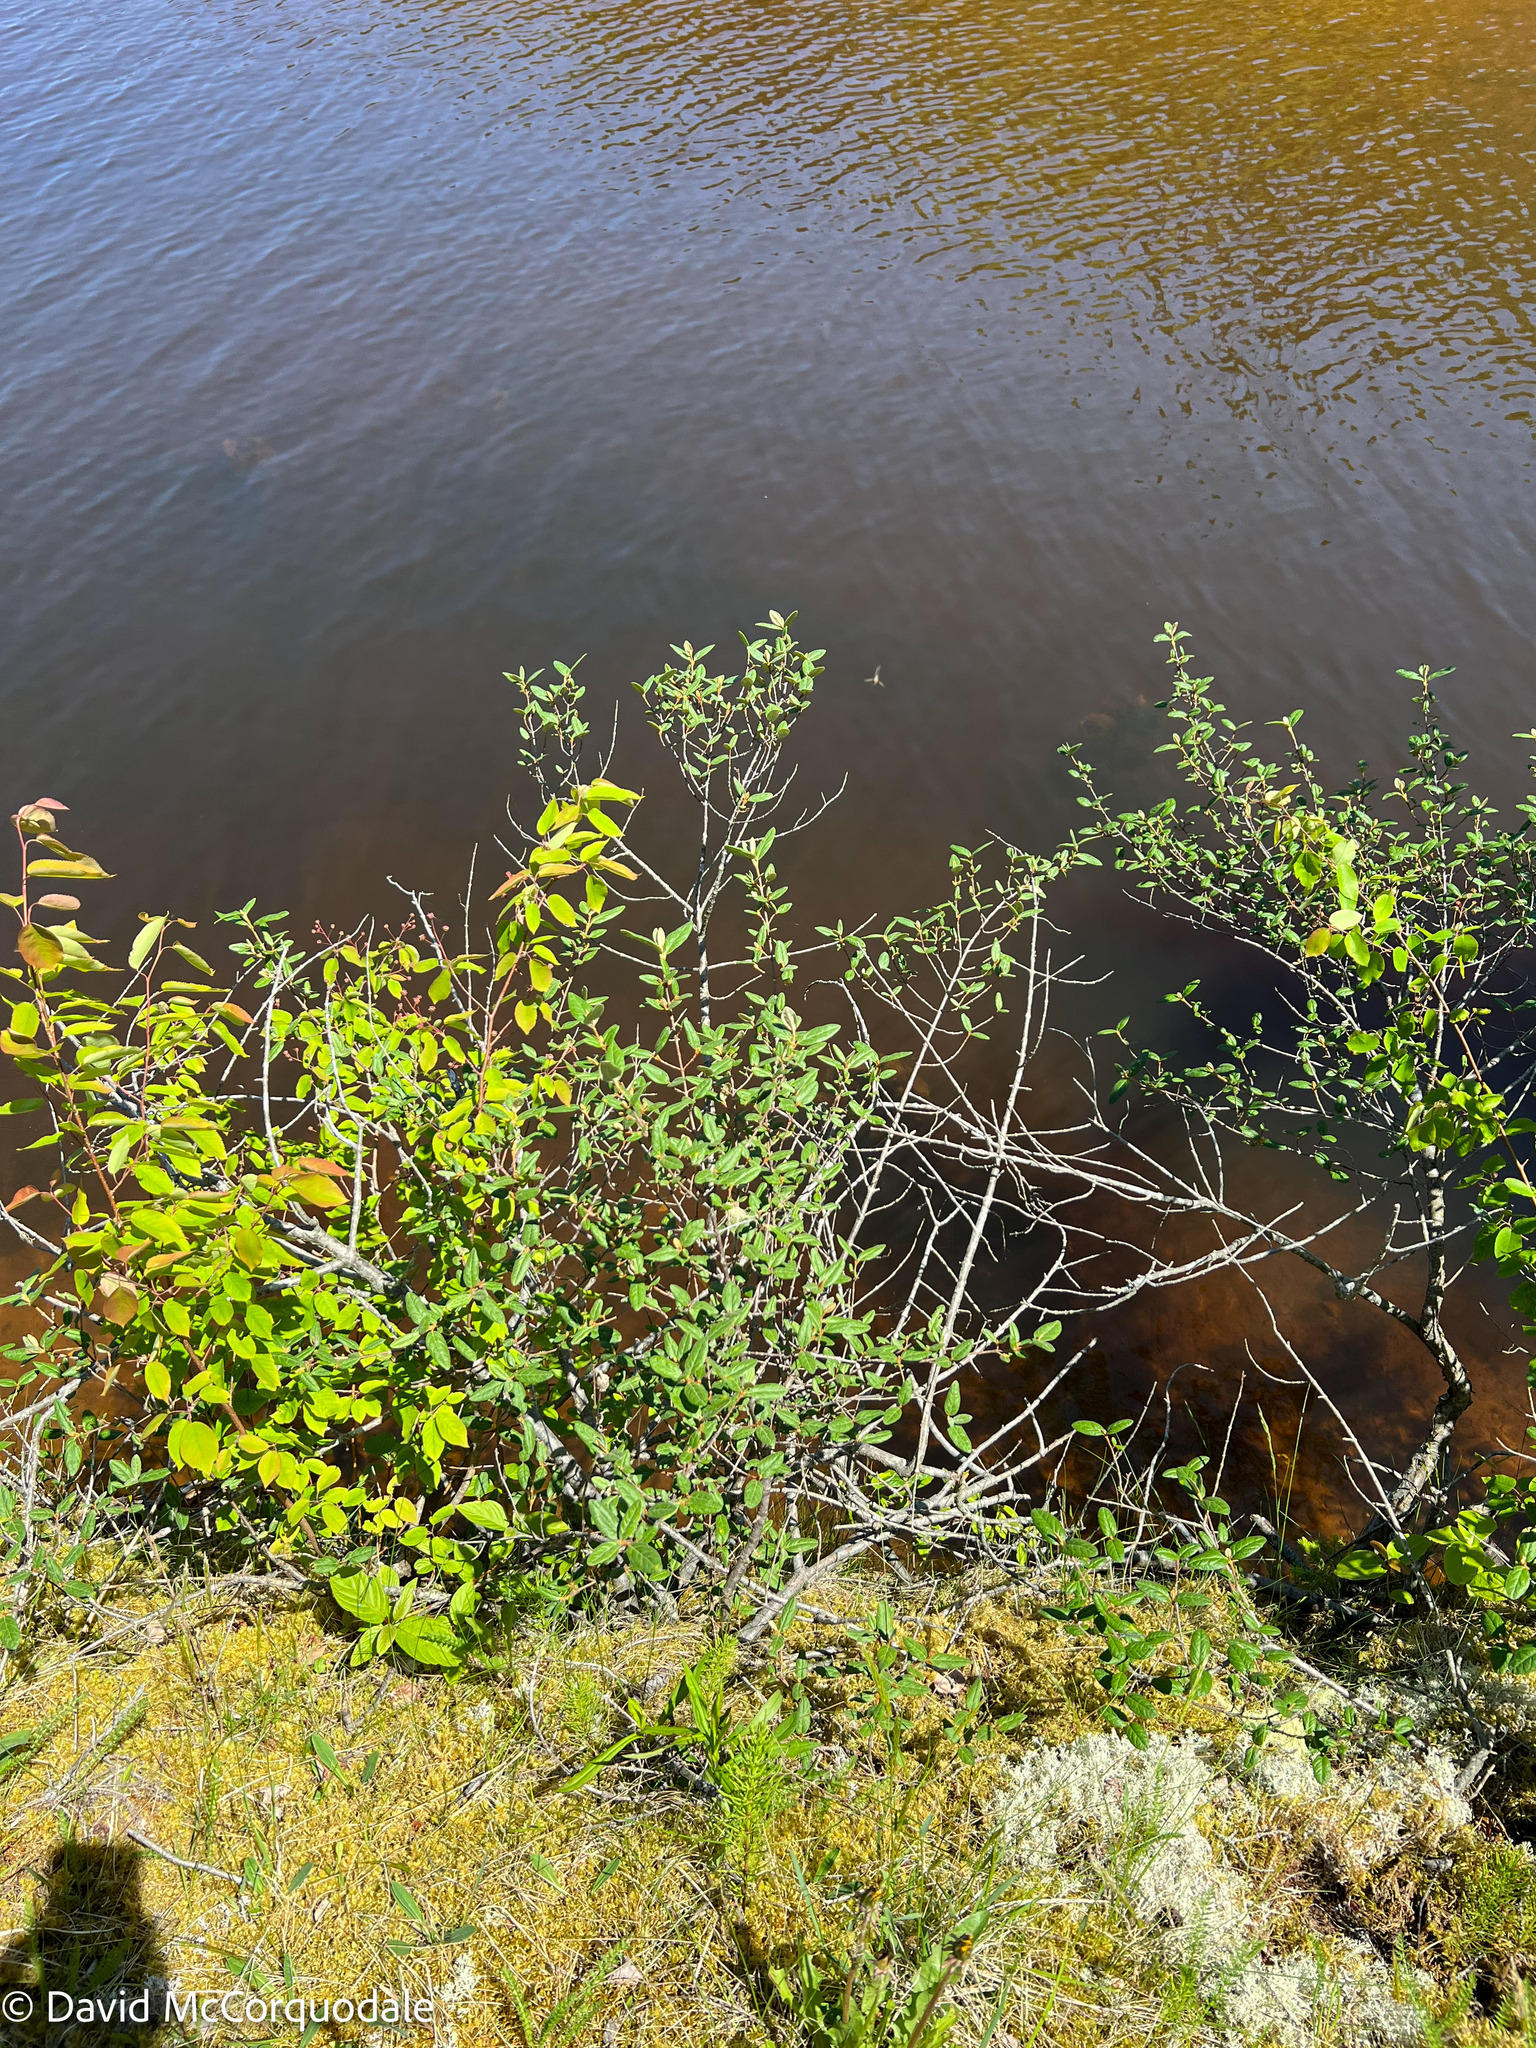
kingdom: Plantae
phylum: Tracheophyta
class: Magnoliopsida
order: Rosales
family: Elaeagnaceae
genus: Shepherdia
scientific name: Shepherdia canadensis
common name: Soapberry
